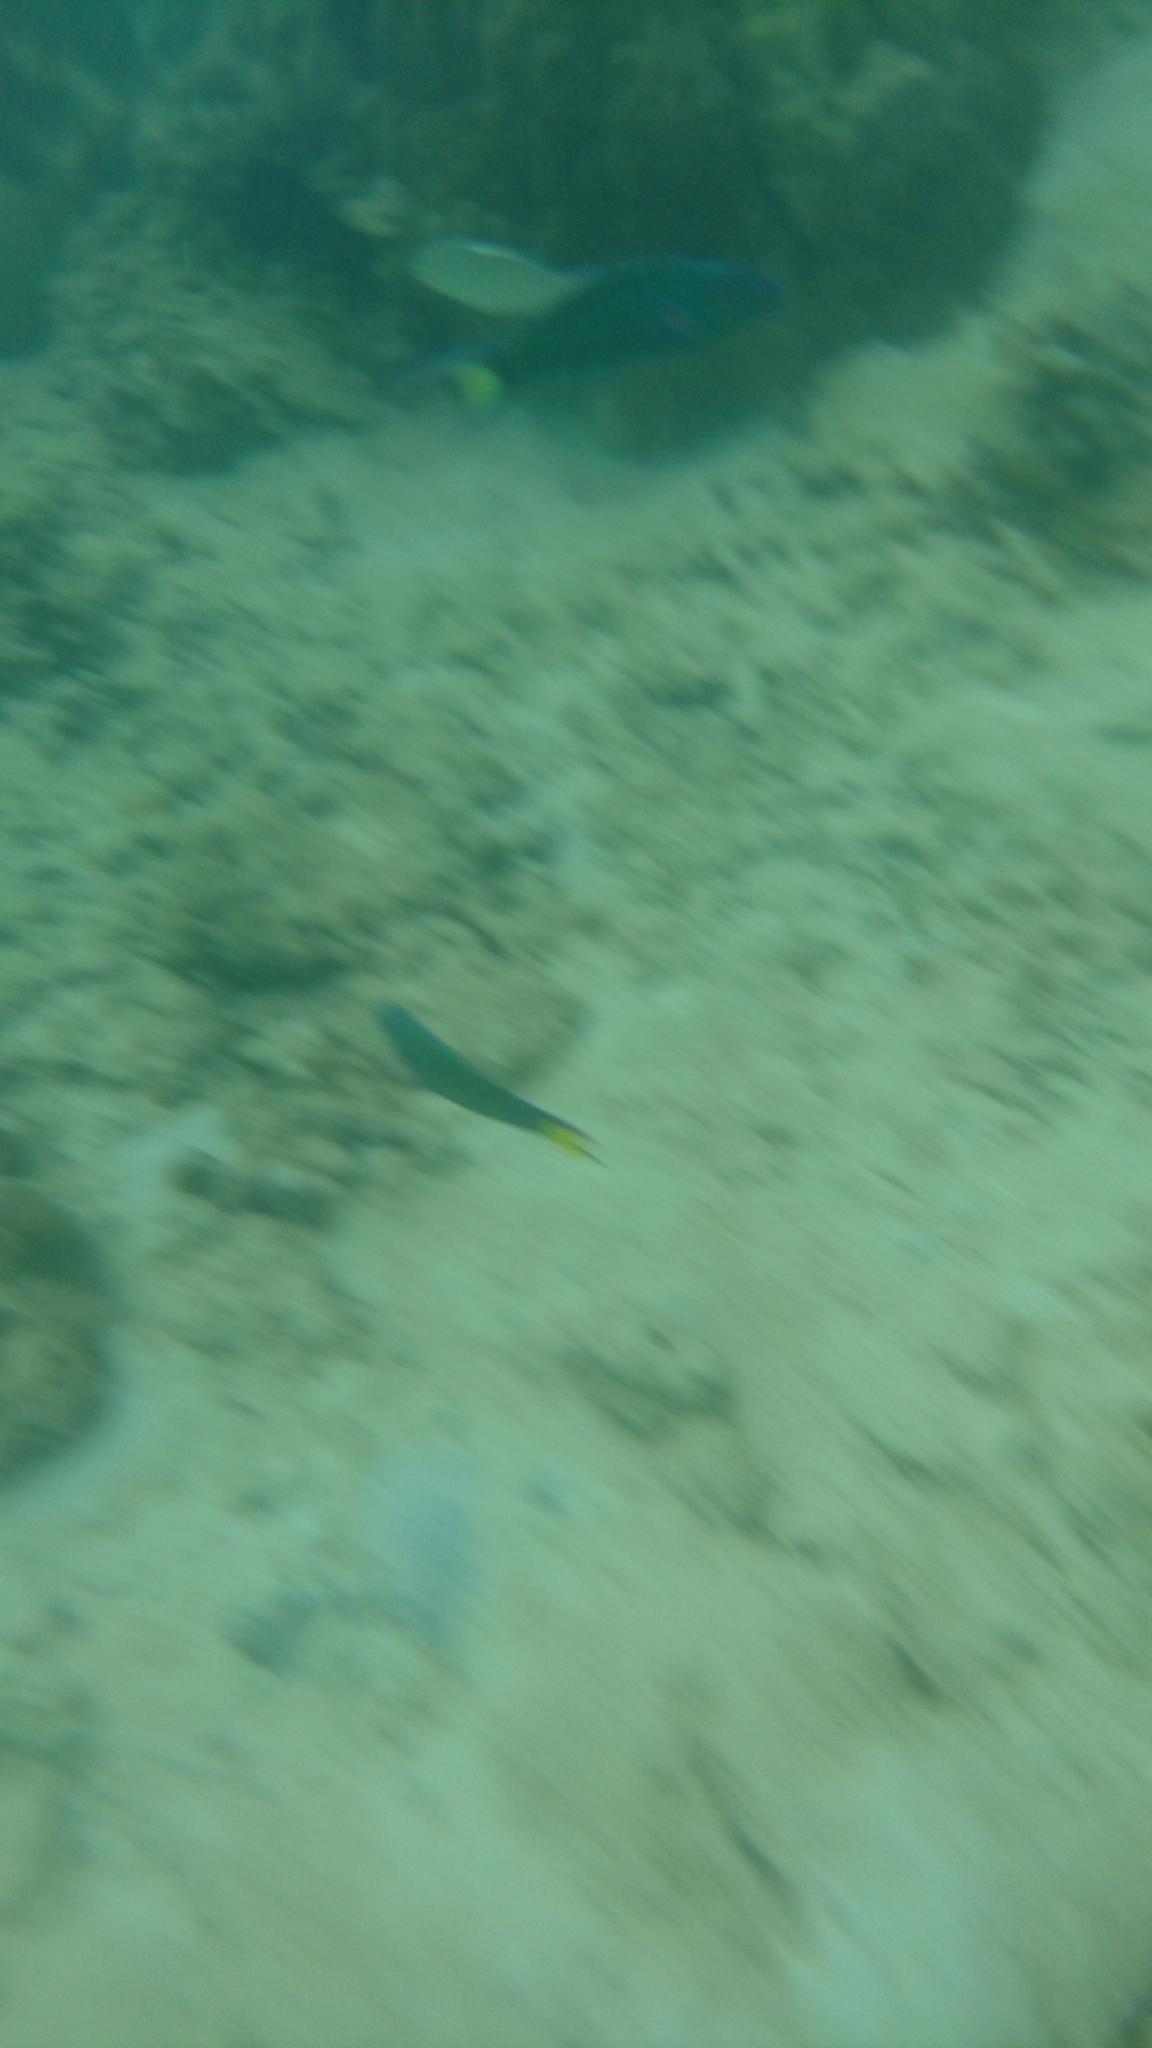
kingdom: Animalia
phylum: Chordata
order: Perciformes
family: Labridae
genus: Thalassoma
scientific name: Thalassoma lunare
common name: Blue wrasse
